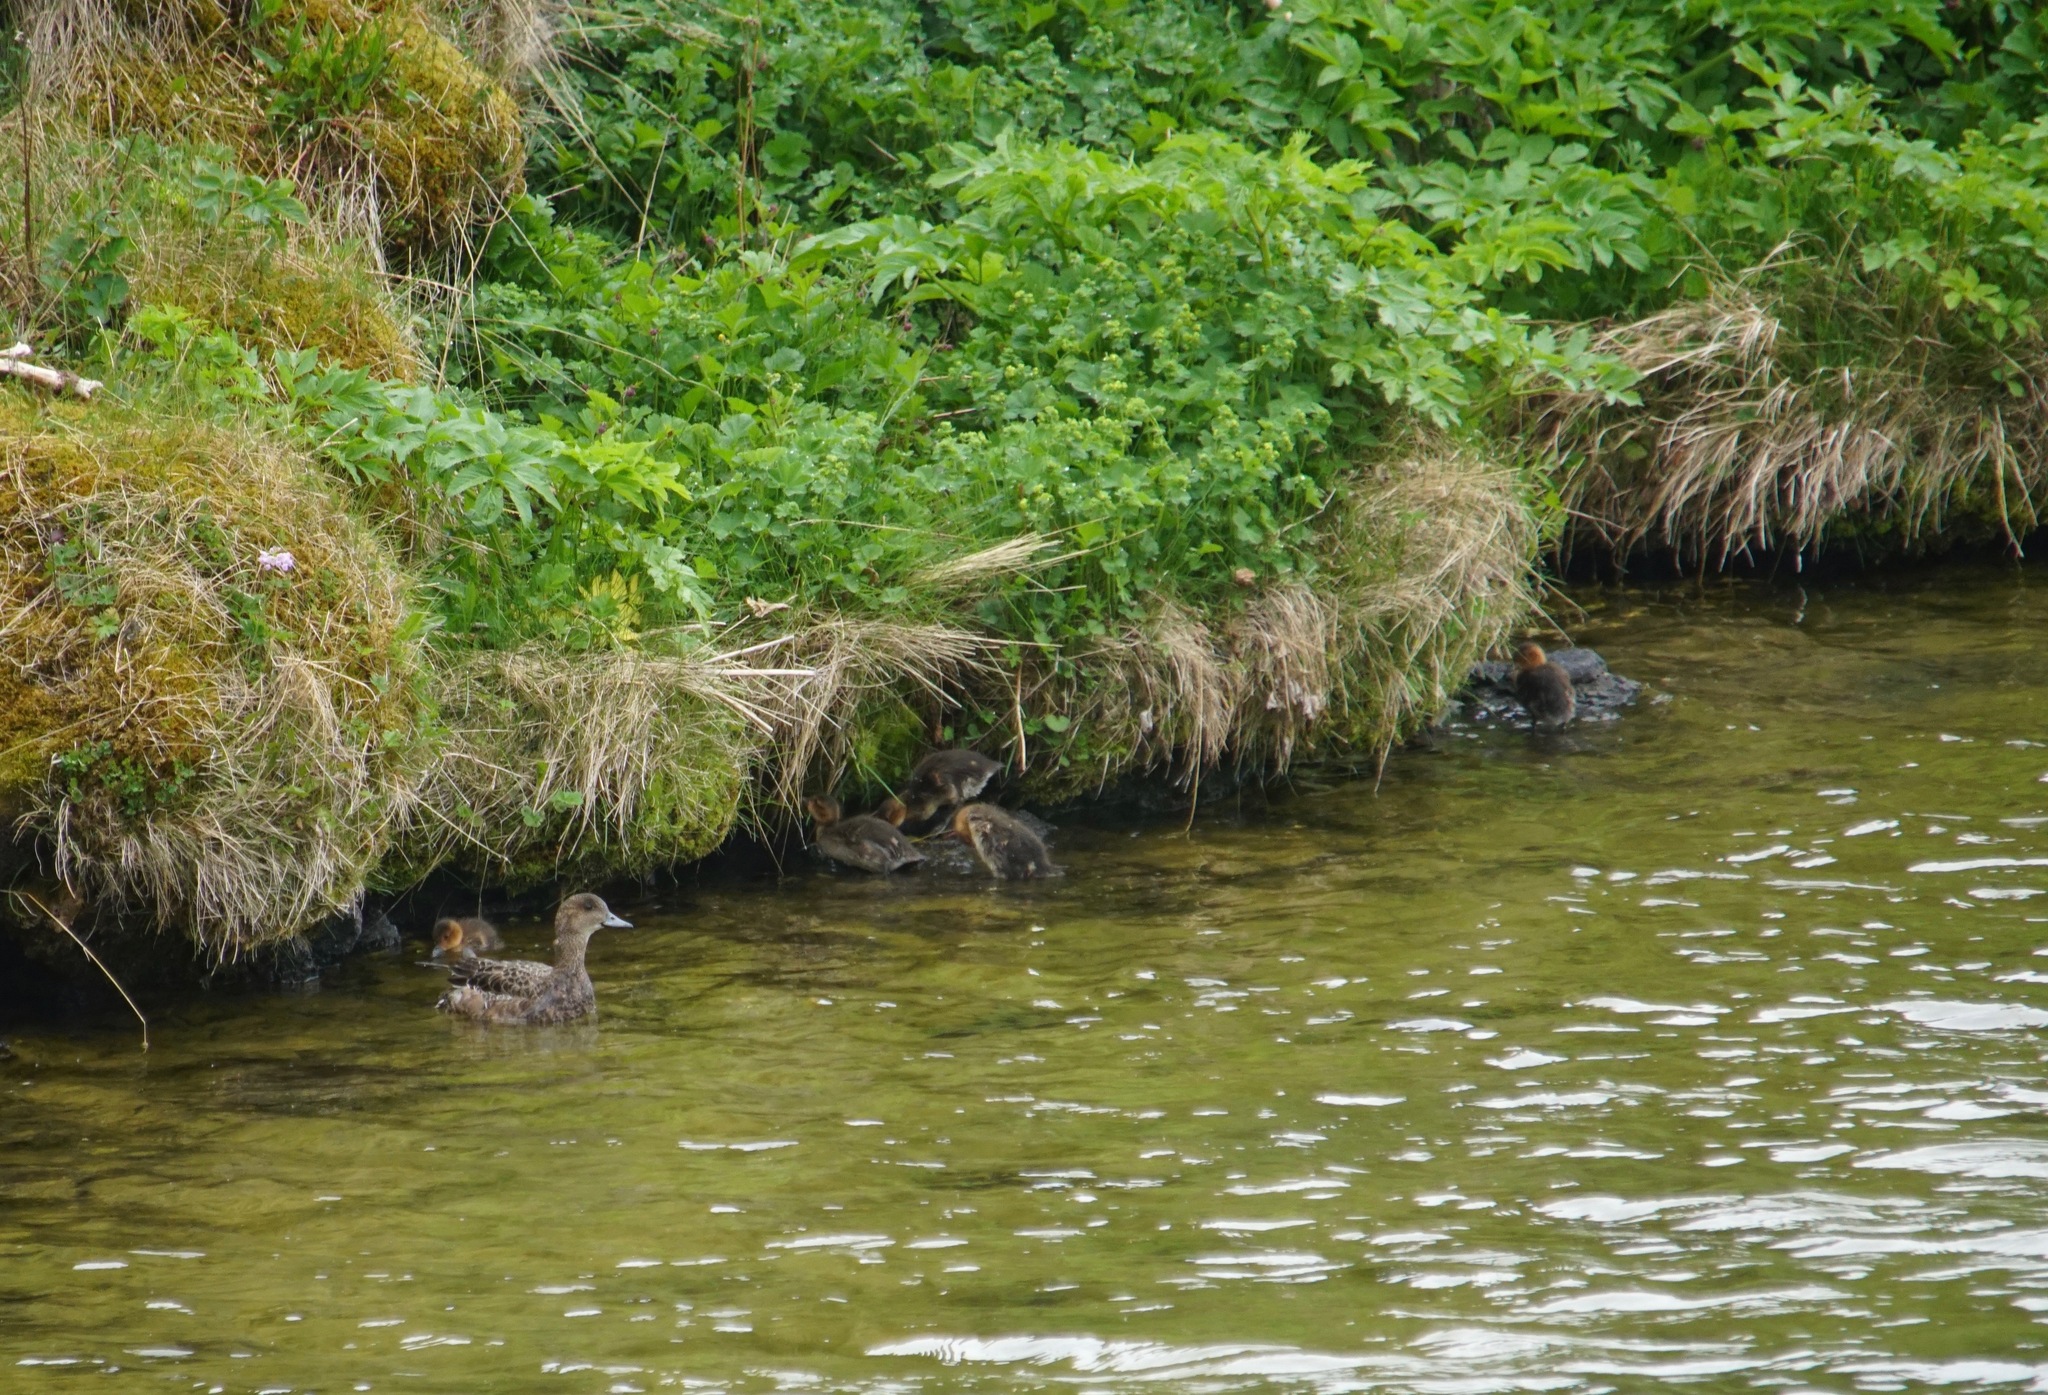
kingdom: Animalia
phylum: Chordata
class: Aves
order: Anseriformes
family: Anatidae
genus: Mareca
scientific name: Mareca penelope
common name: Eurasian wigeon
